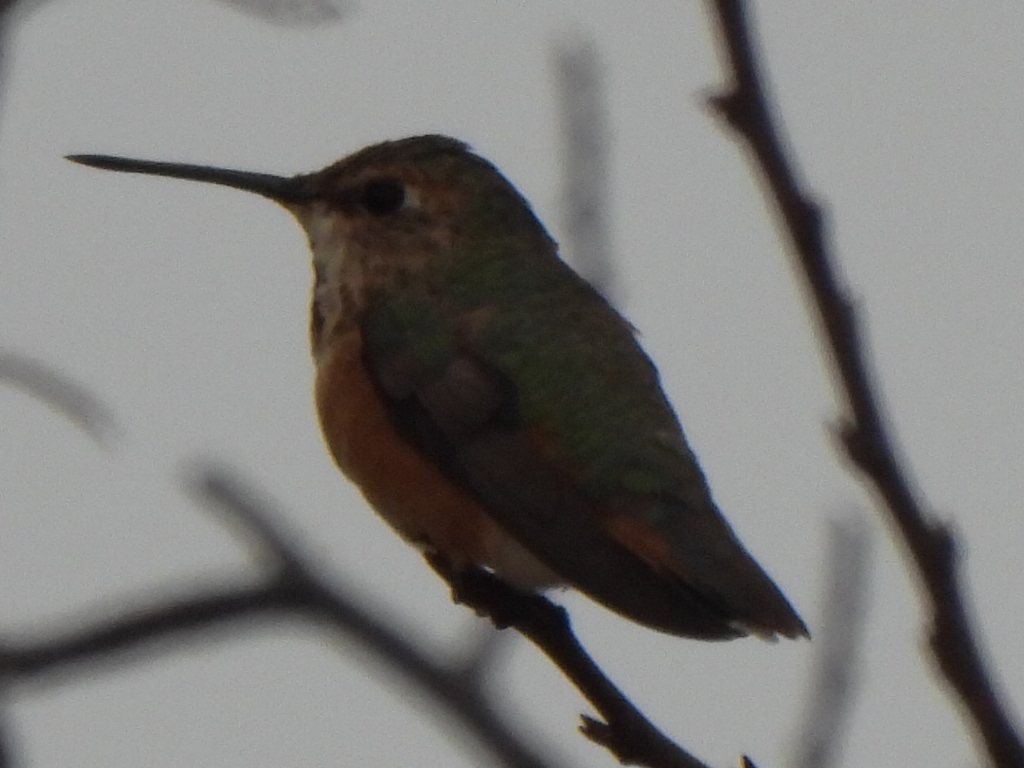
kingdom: Animalia
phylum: Chordata
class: Aves
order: Apodiformes
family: Trochilidae
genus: Selasphorus
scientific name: Selasphorus rufus
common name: Rufous hummingbird
